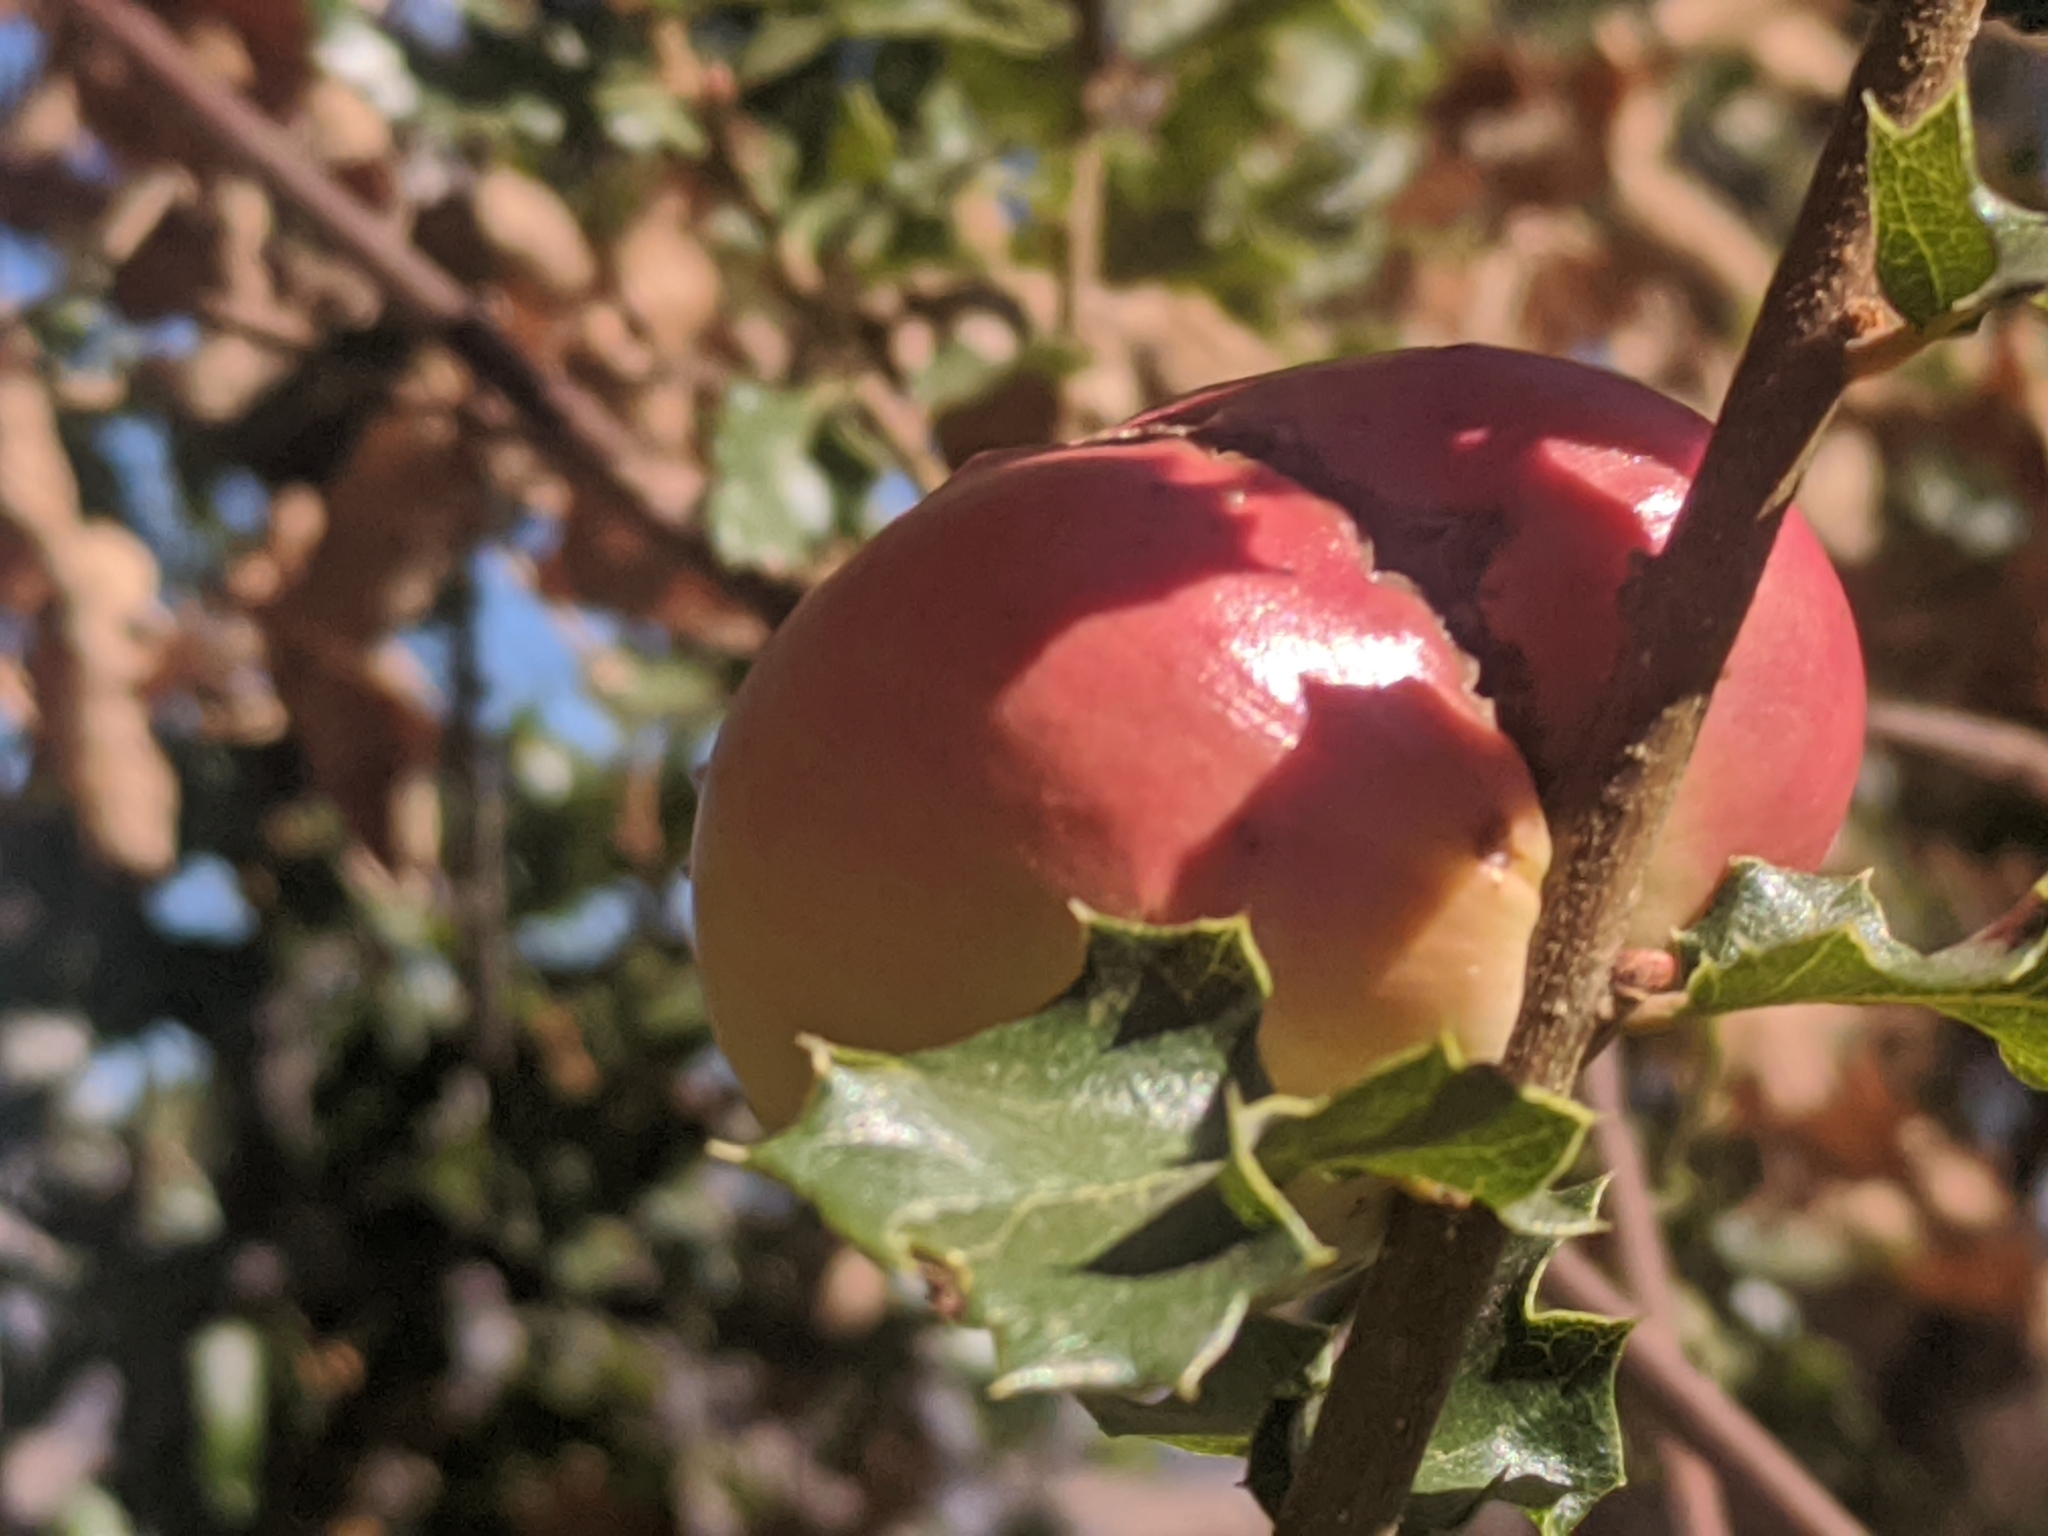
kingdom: Animalia
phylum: Arthropoda
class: Insecta
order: Hymenoptera
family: Cynipidae
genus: Andricus
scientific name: Andricus quercuscalifornicus
